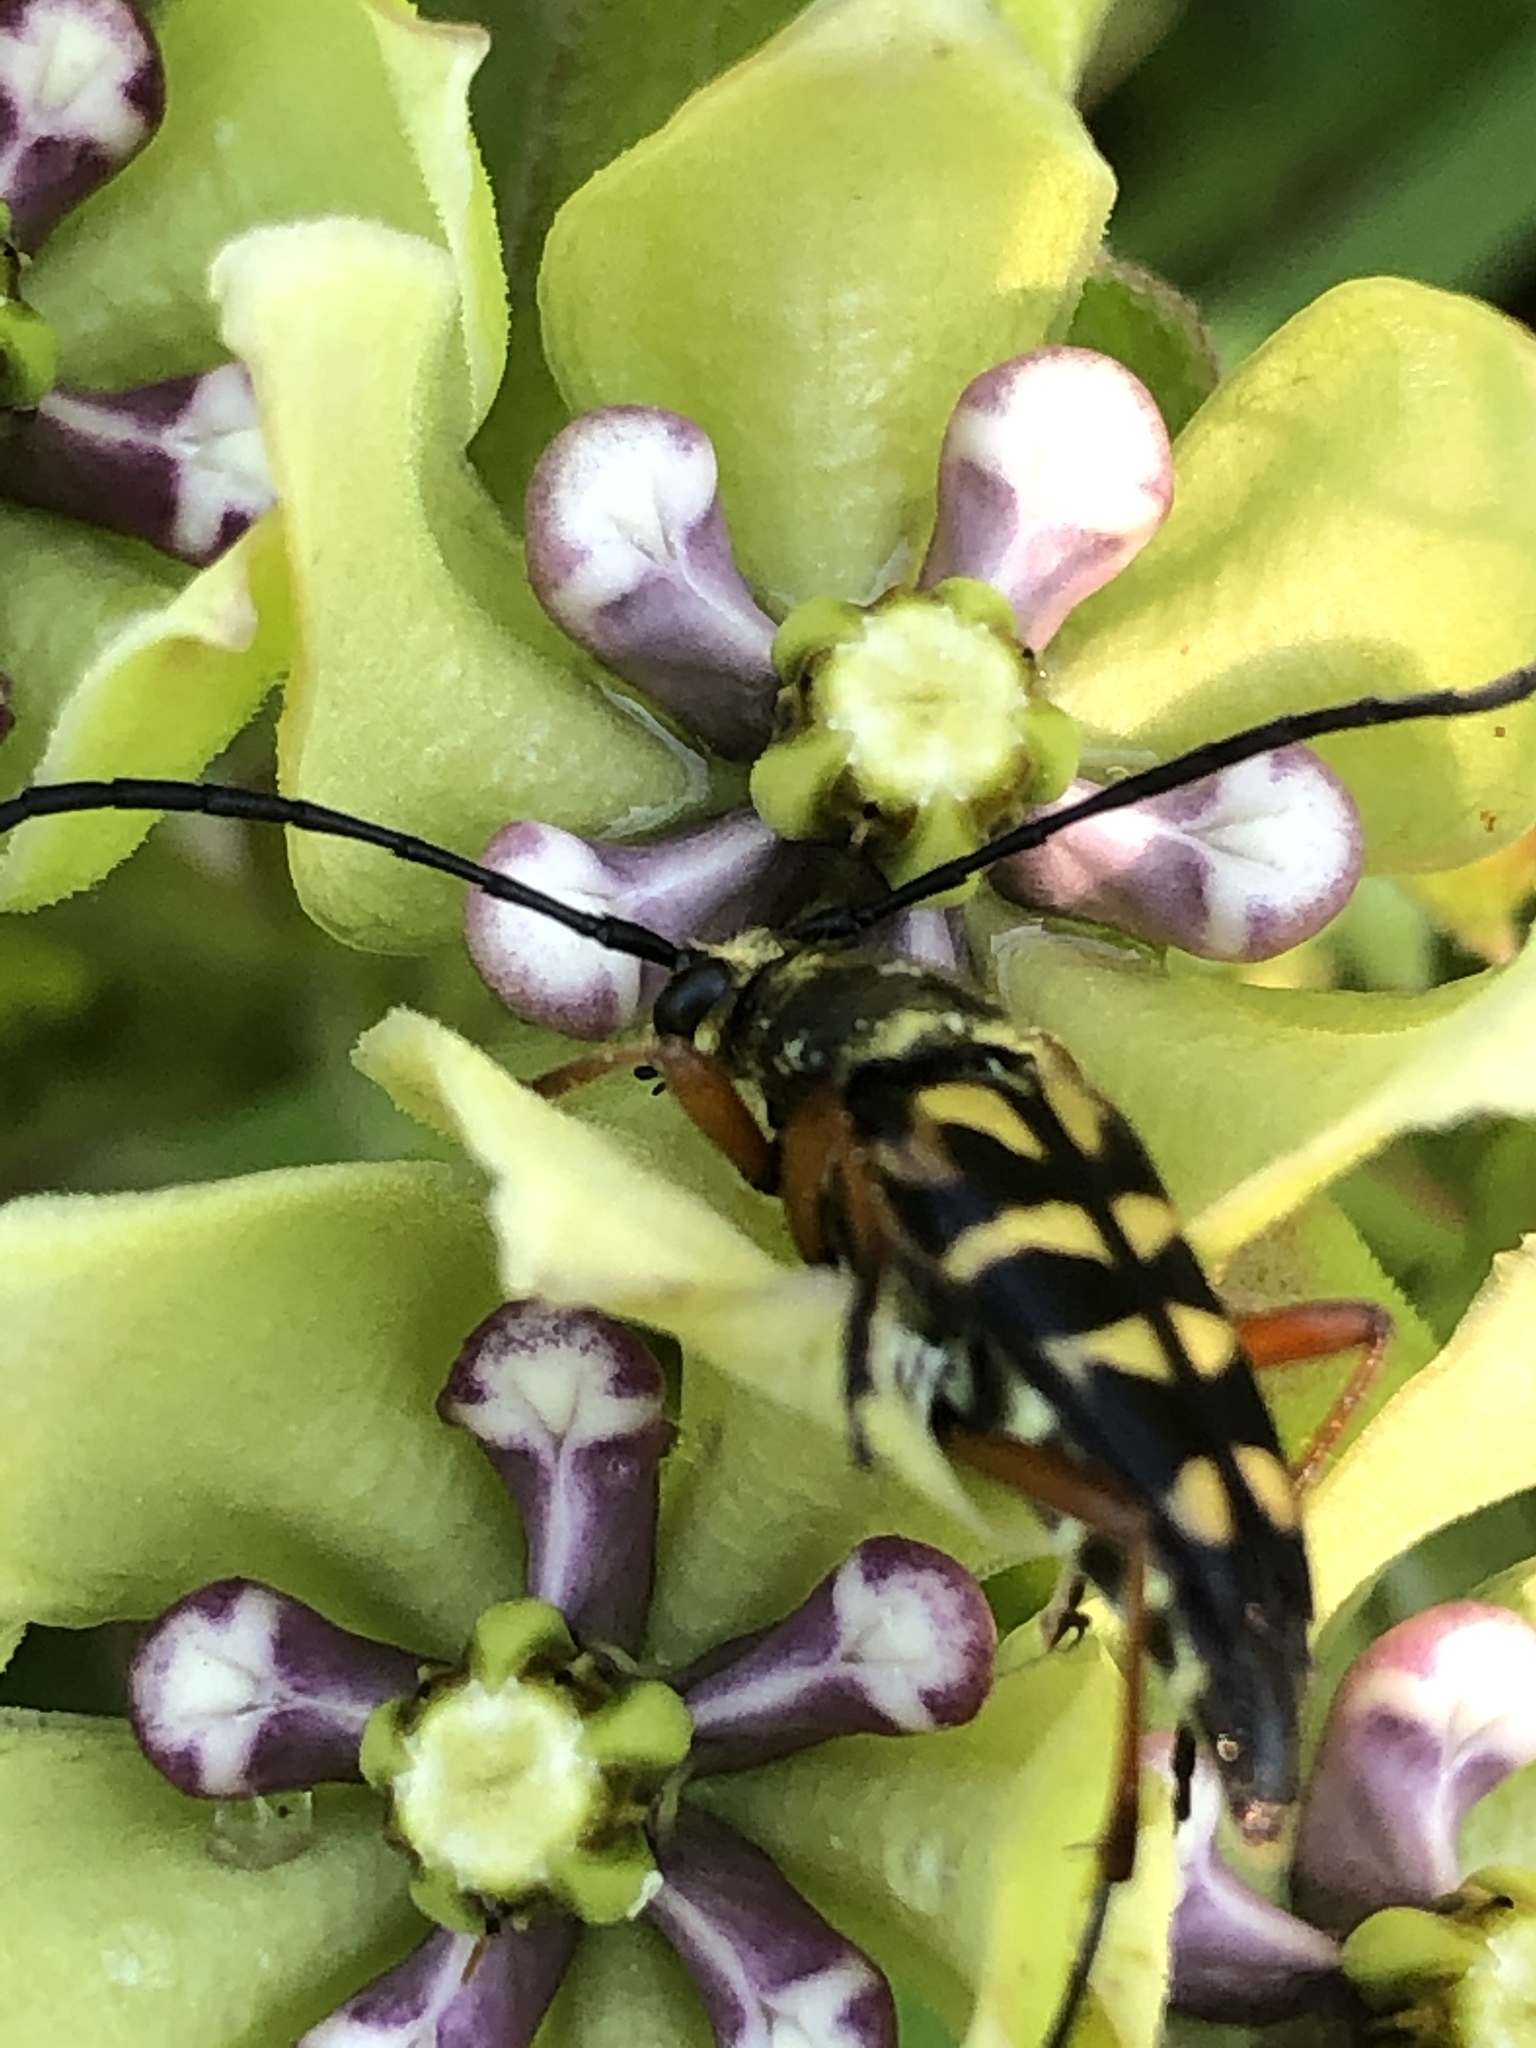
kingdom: Animalia
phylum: Arthropoda
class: Insecta
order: Coleoptera
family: Cerambycidae
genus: Typocerus
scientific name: Typocerus zebra
